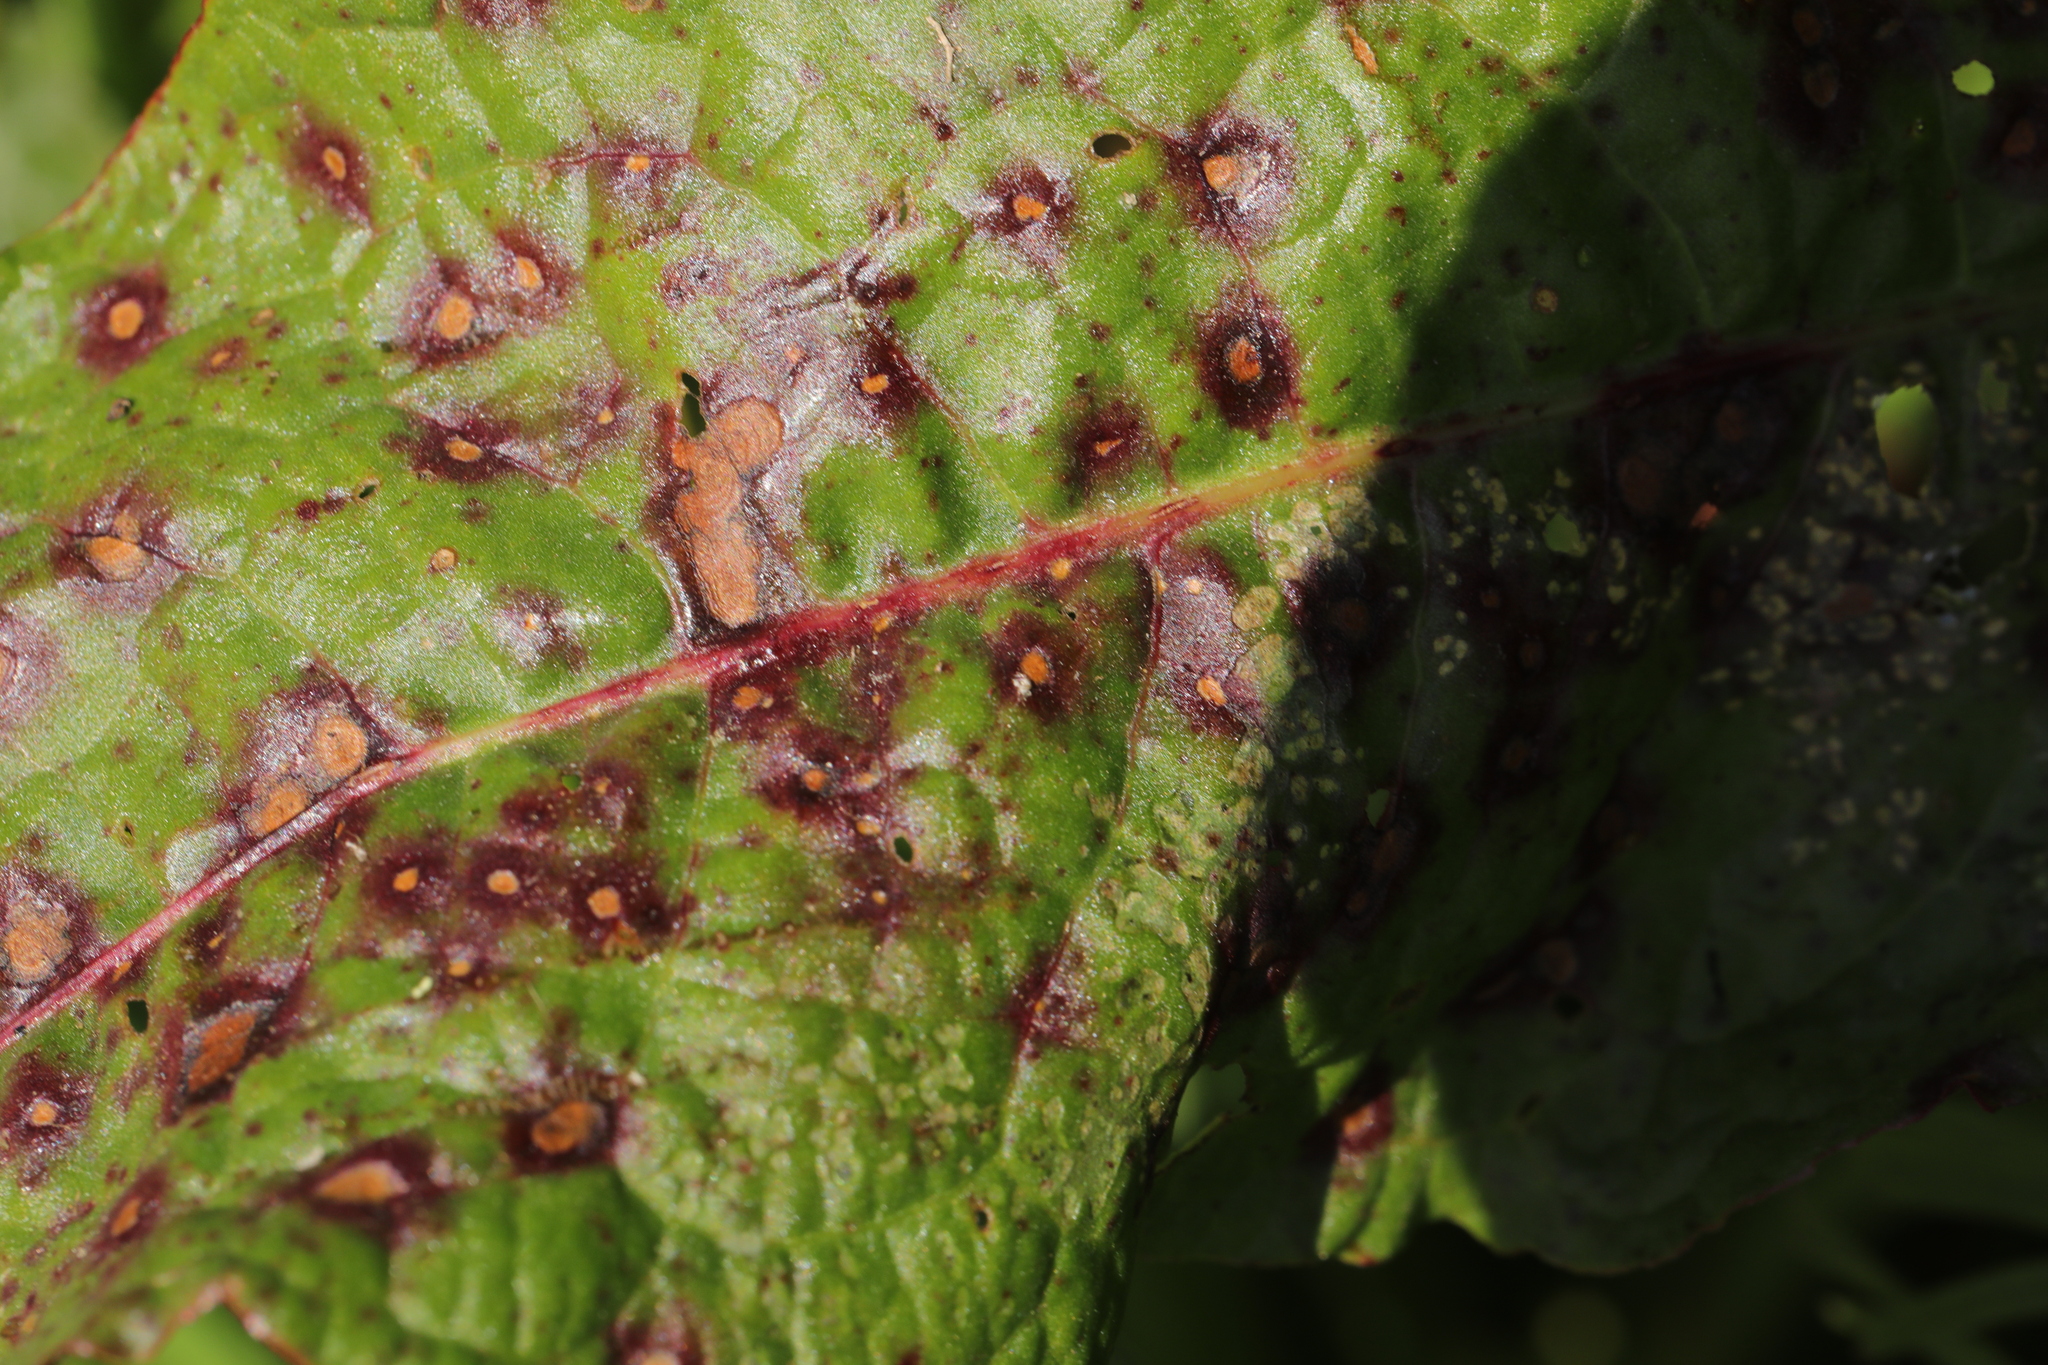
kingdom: Fungi
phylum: Ascomycota
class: Dothideomycetes
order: Mycosphaerellales
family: Mycosphaerellaceae
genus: Ramularia
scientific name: Ramularia rubella
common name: Red dock spot
